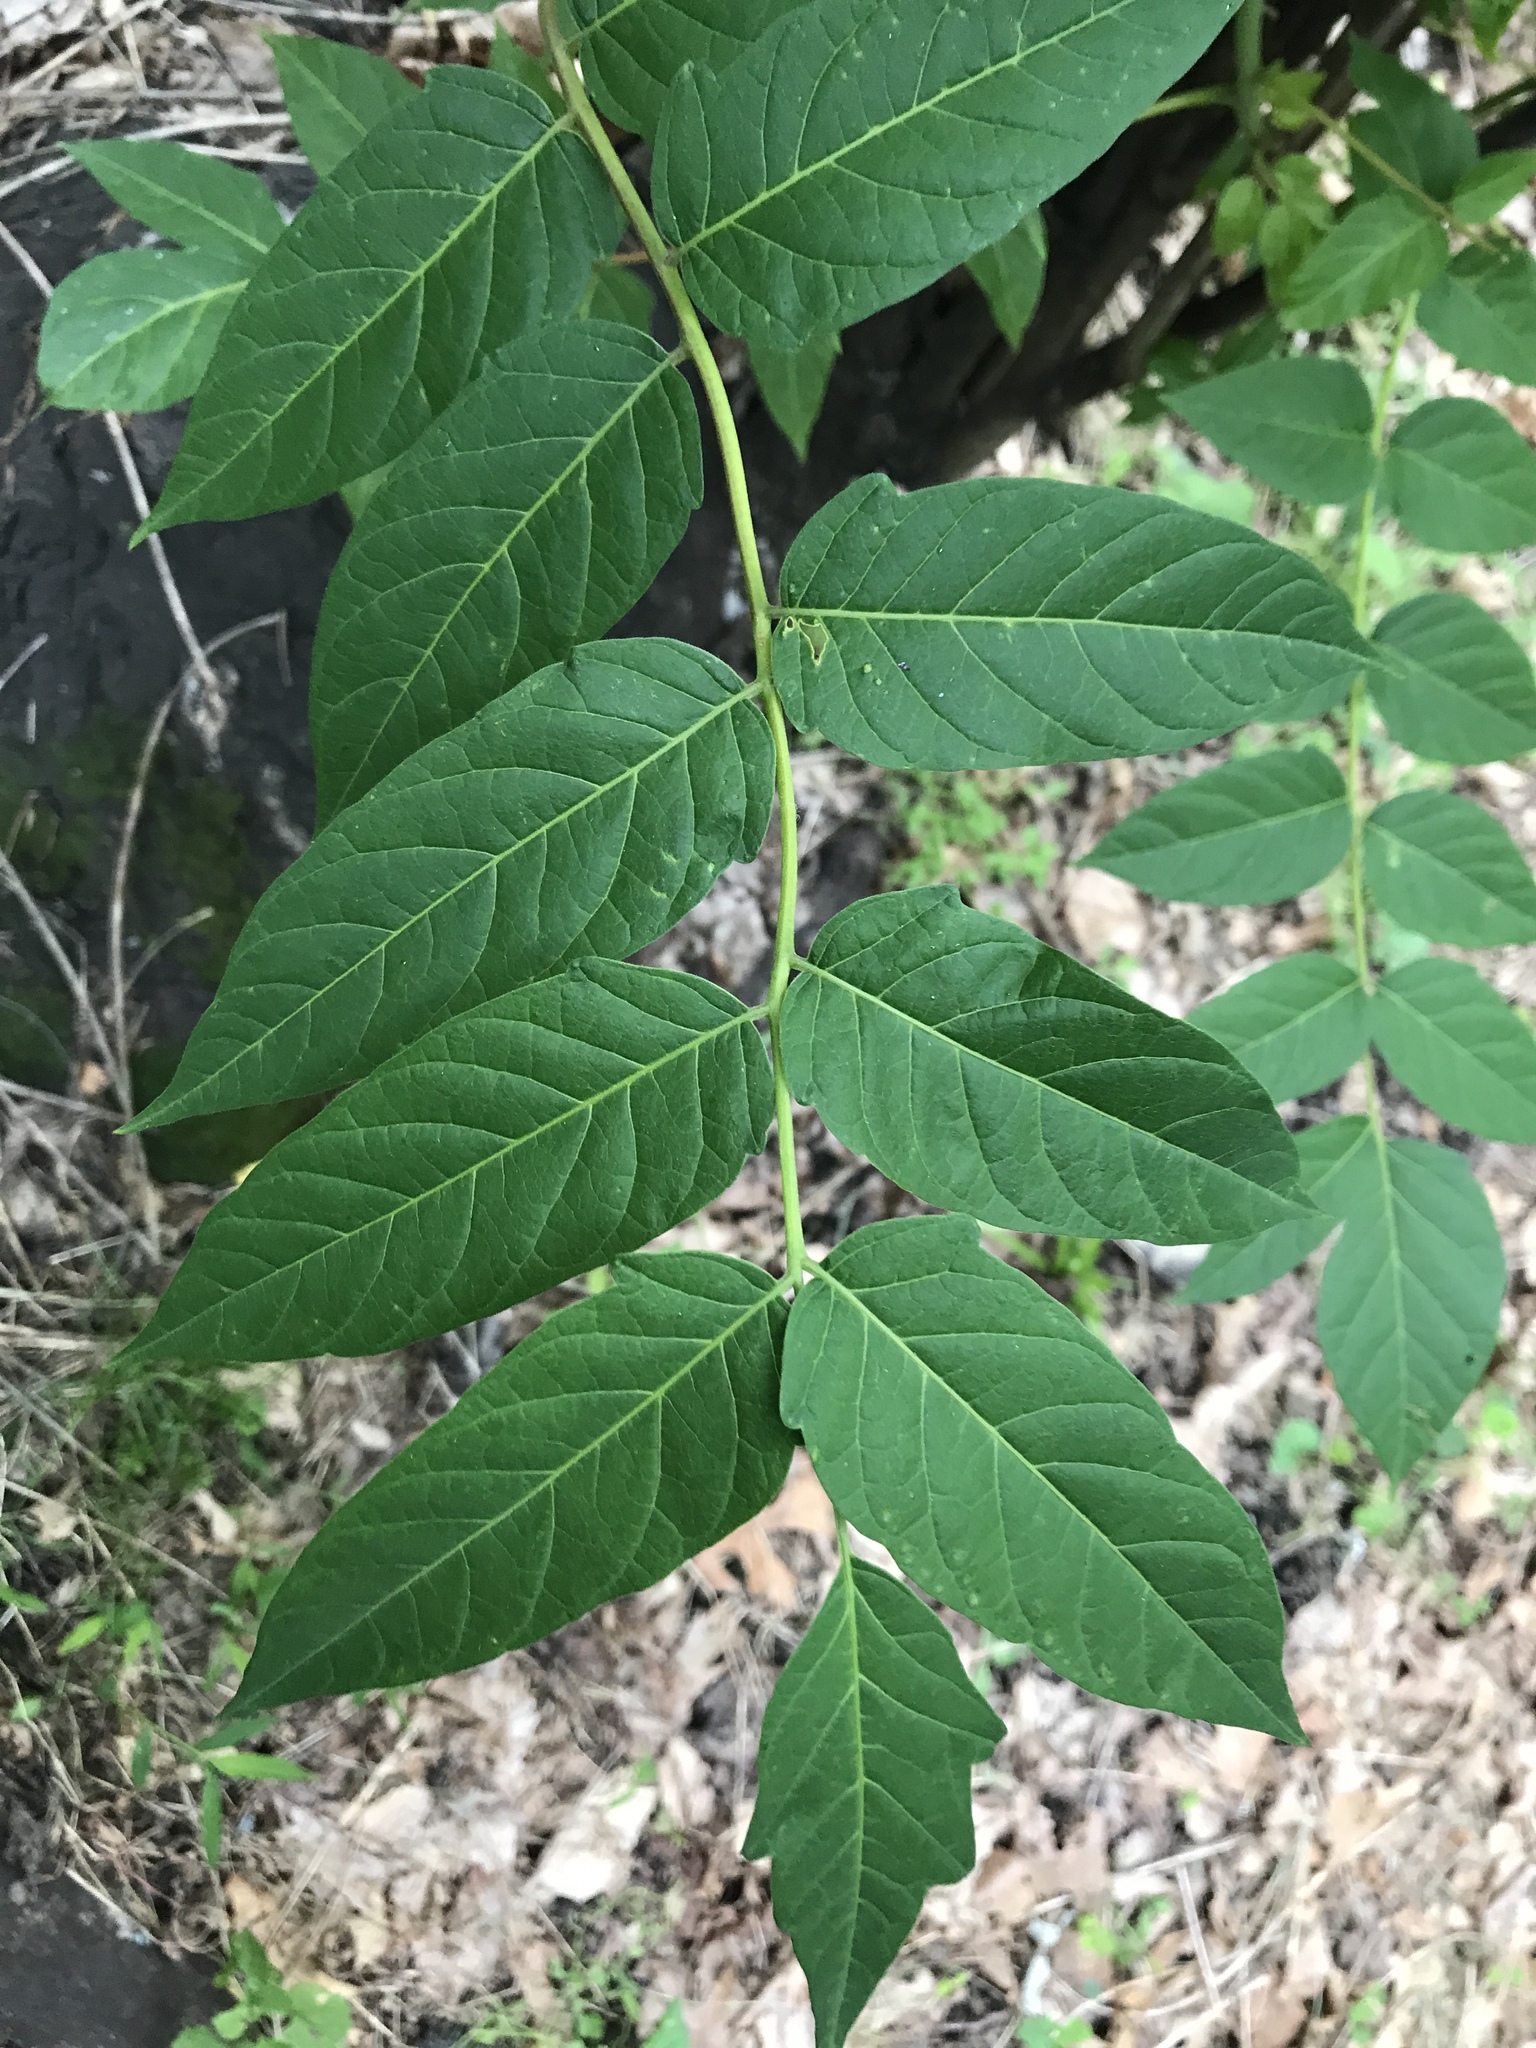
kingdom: Plantae
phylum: Tracheophyta
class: Magnoliopsida
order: Sapindales
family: Simaroubaceae
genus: Ailanthus
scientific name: Ailanthus altissima
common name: Tree-of-heaven
